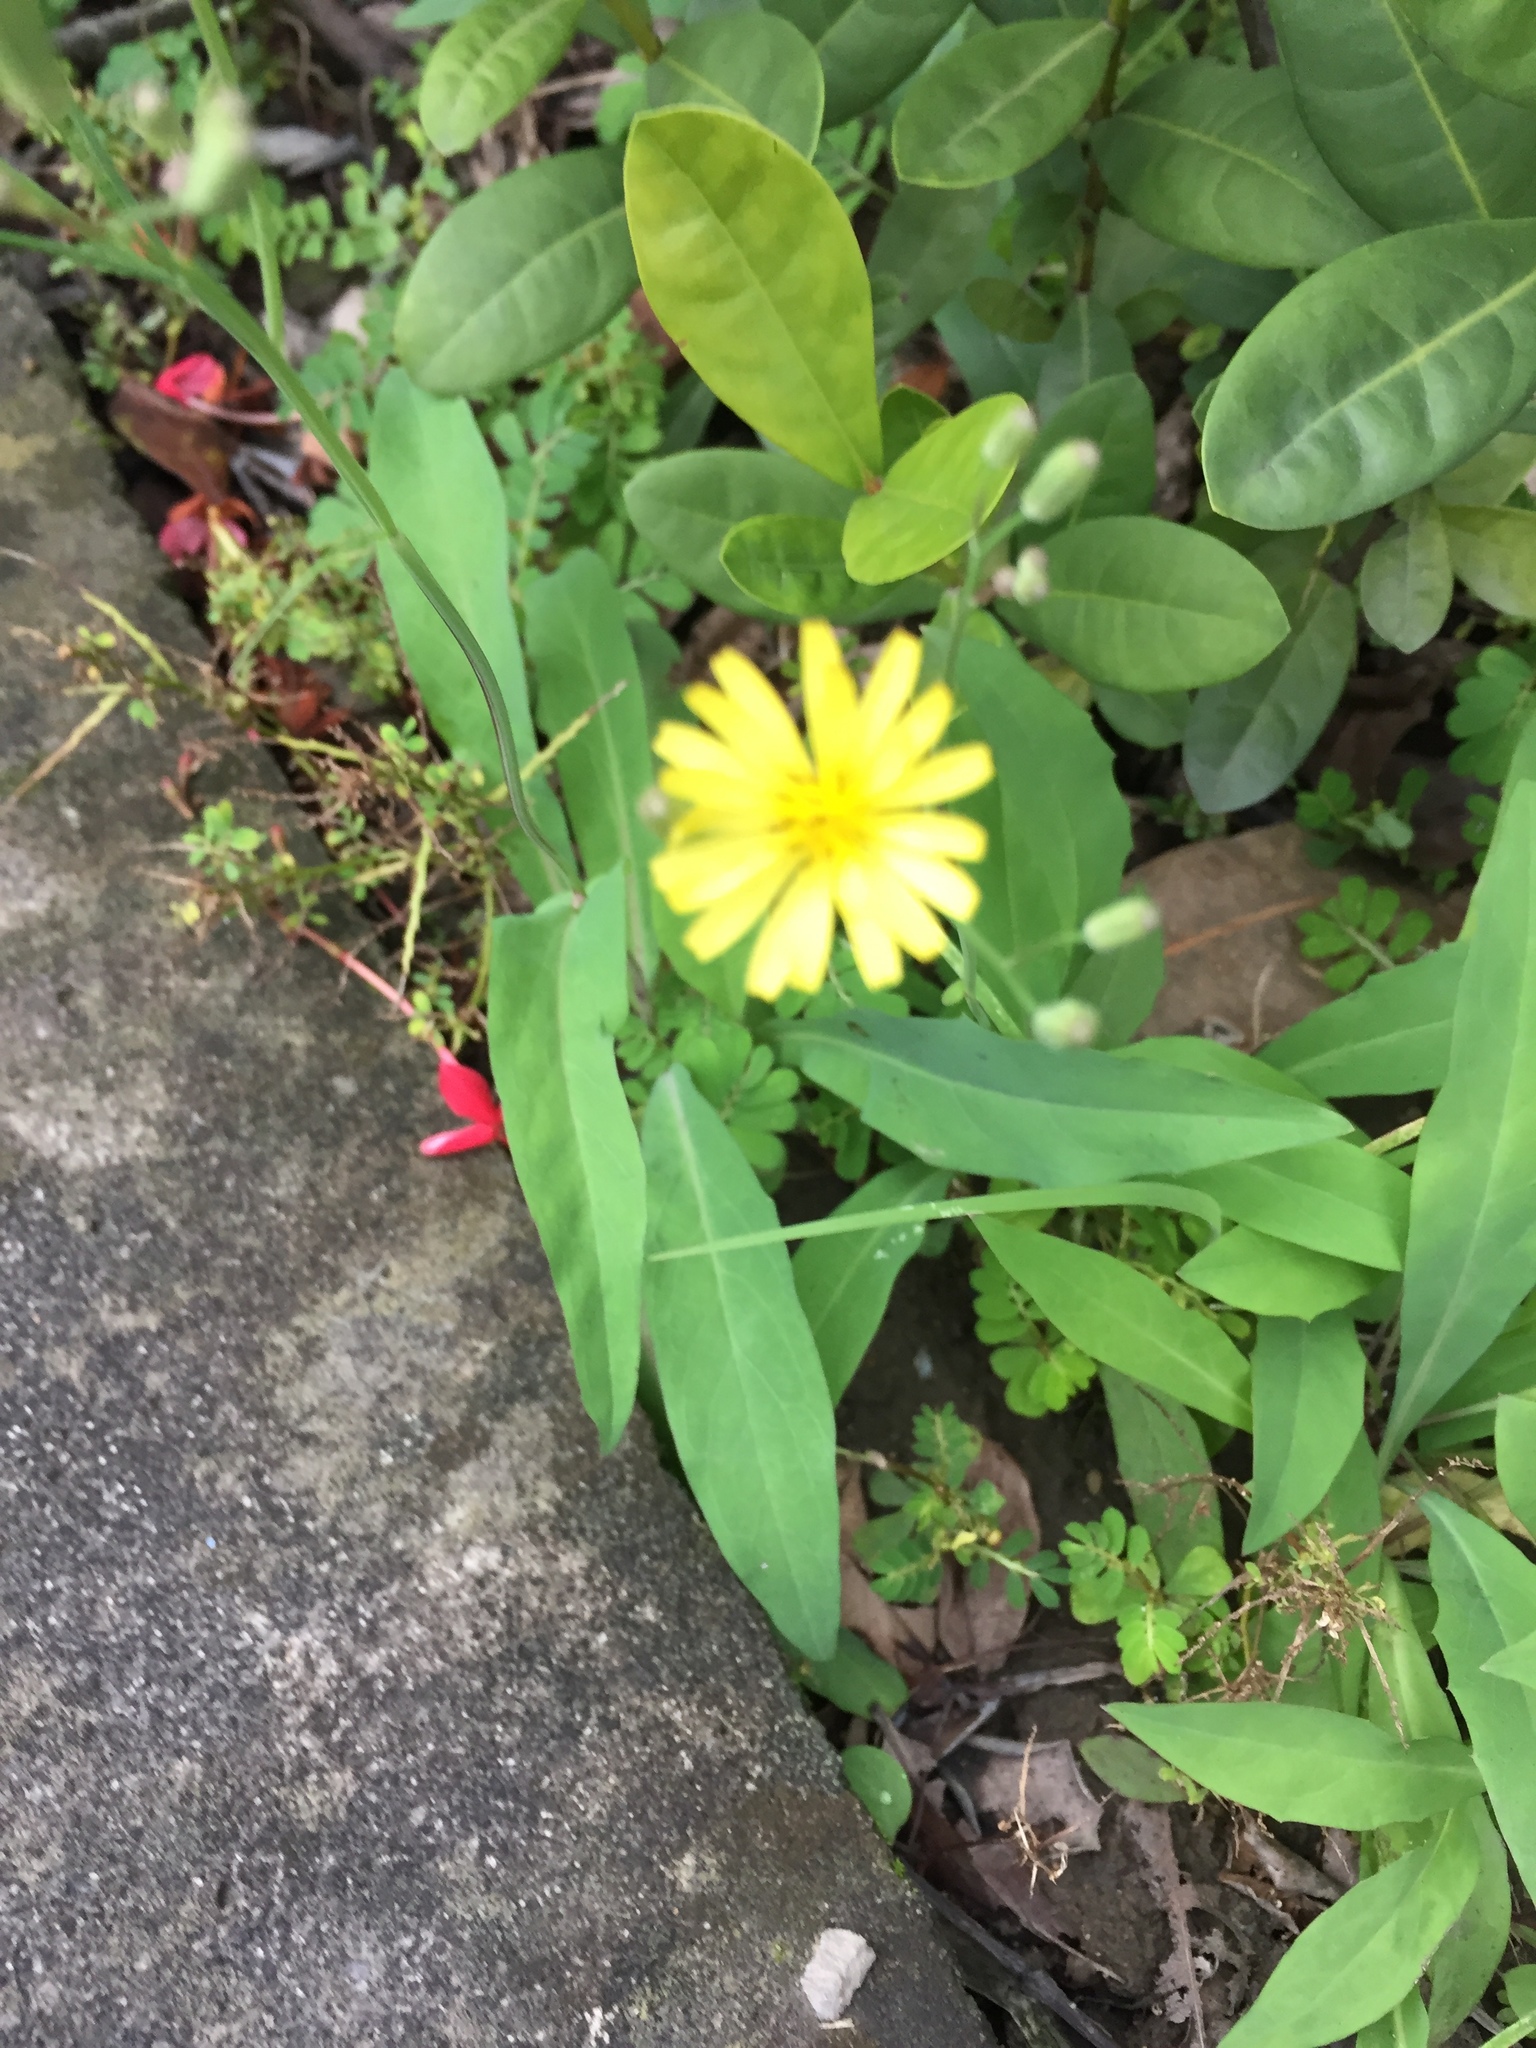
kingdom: Plantae
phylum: Tracheophyta
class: Magnoliopsida
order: Asterales
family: Asteraceae
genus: Ixeris
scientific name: Ixeris chinensis
